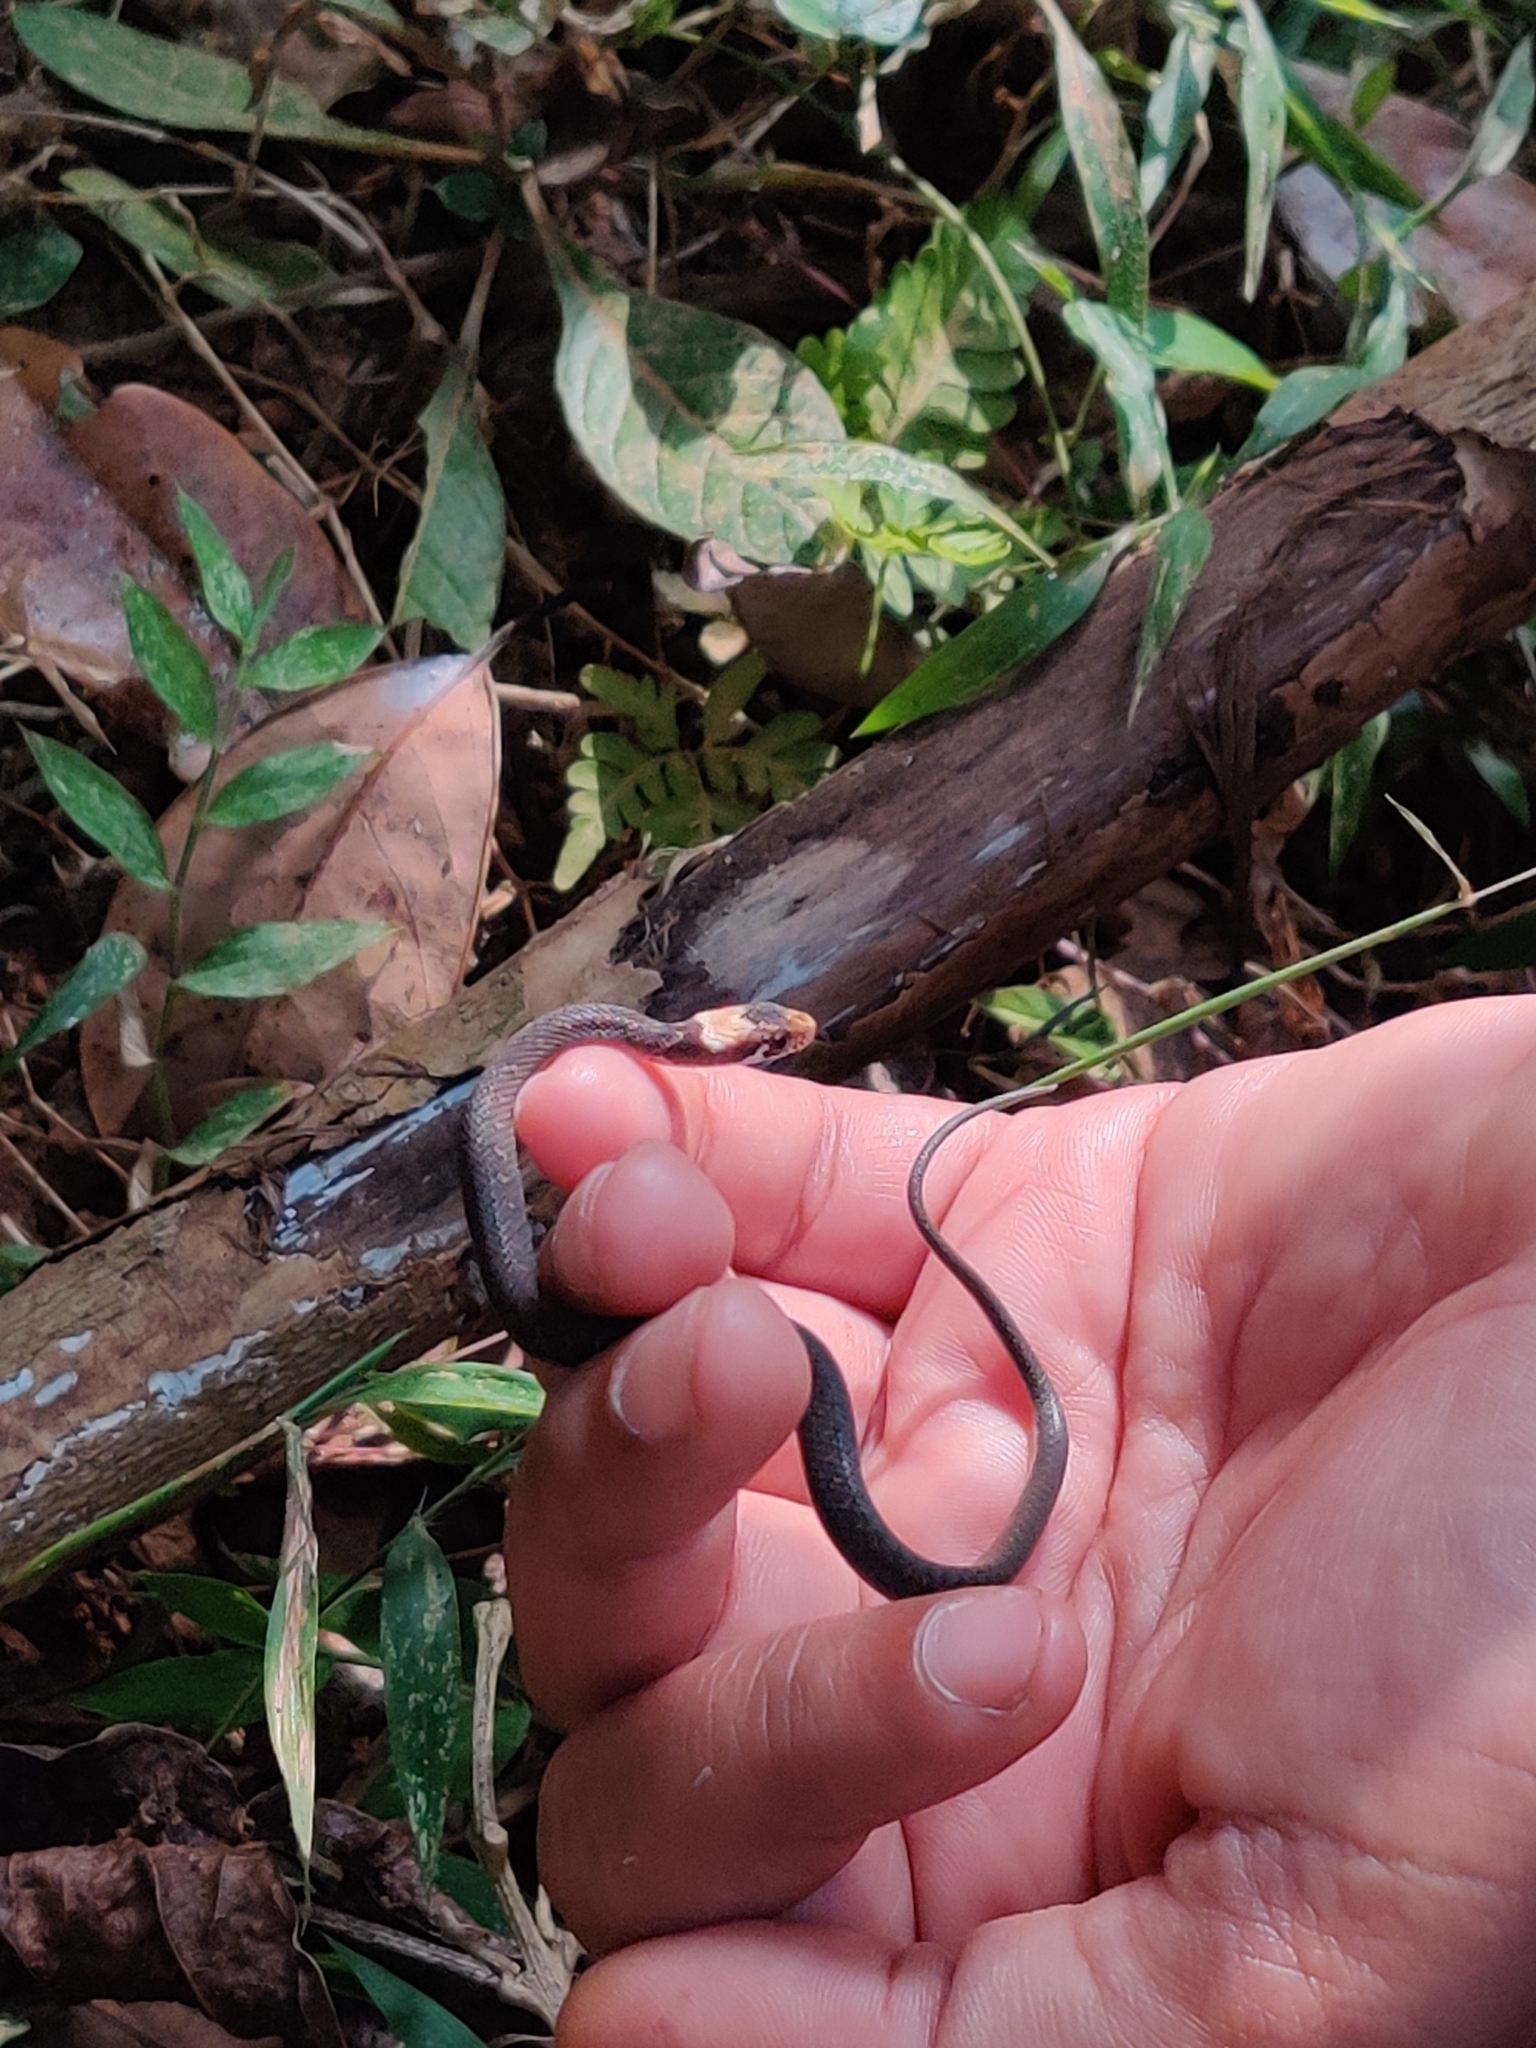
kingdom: Animalia
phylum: Chordata
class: Squamata
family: Colubridae
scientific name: Colubridae
